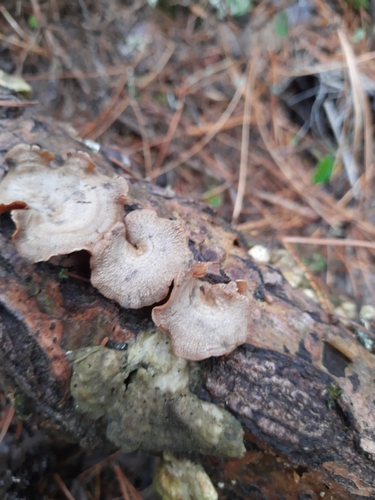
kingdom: Fungi
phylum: Basidiomycota
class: Agaricomycetes
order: Agaricales
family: Mycenaceae
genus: Panellus
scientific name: Panellus stipticus
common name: Bitter oysterling
